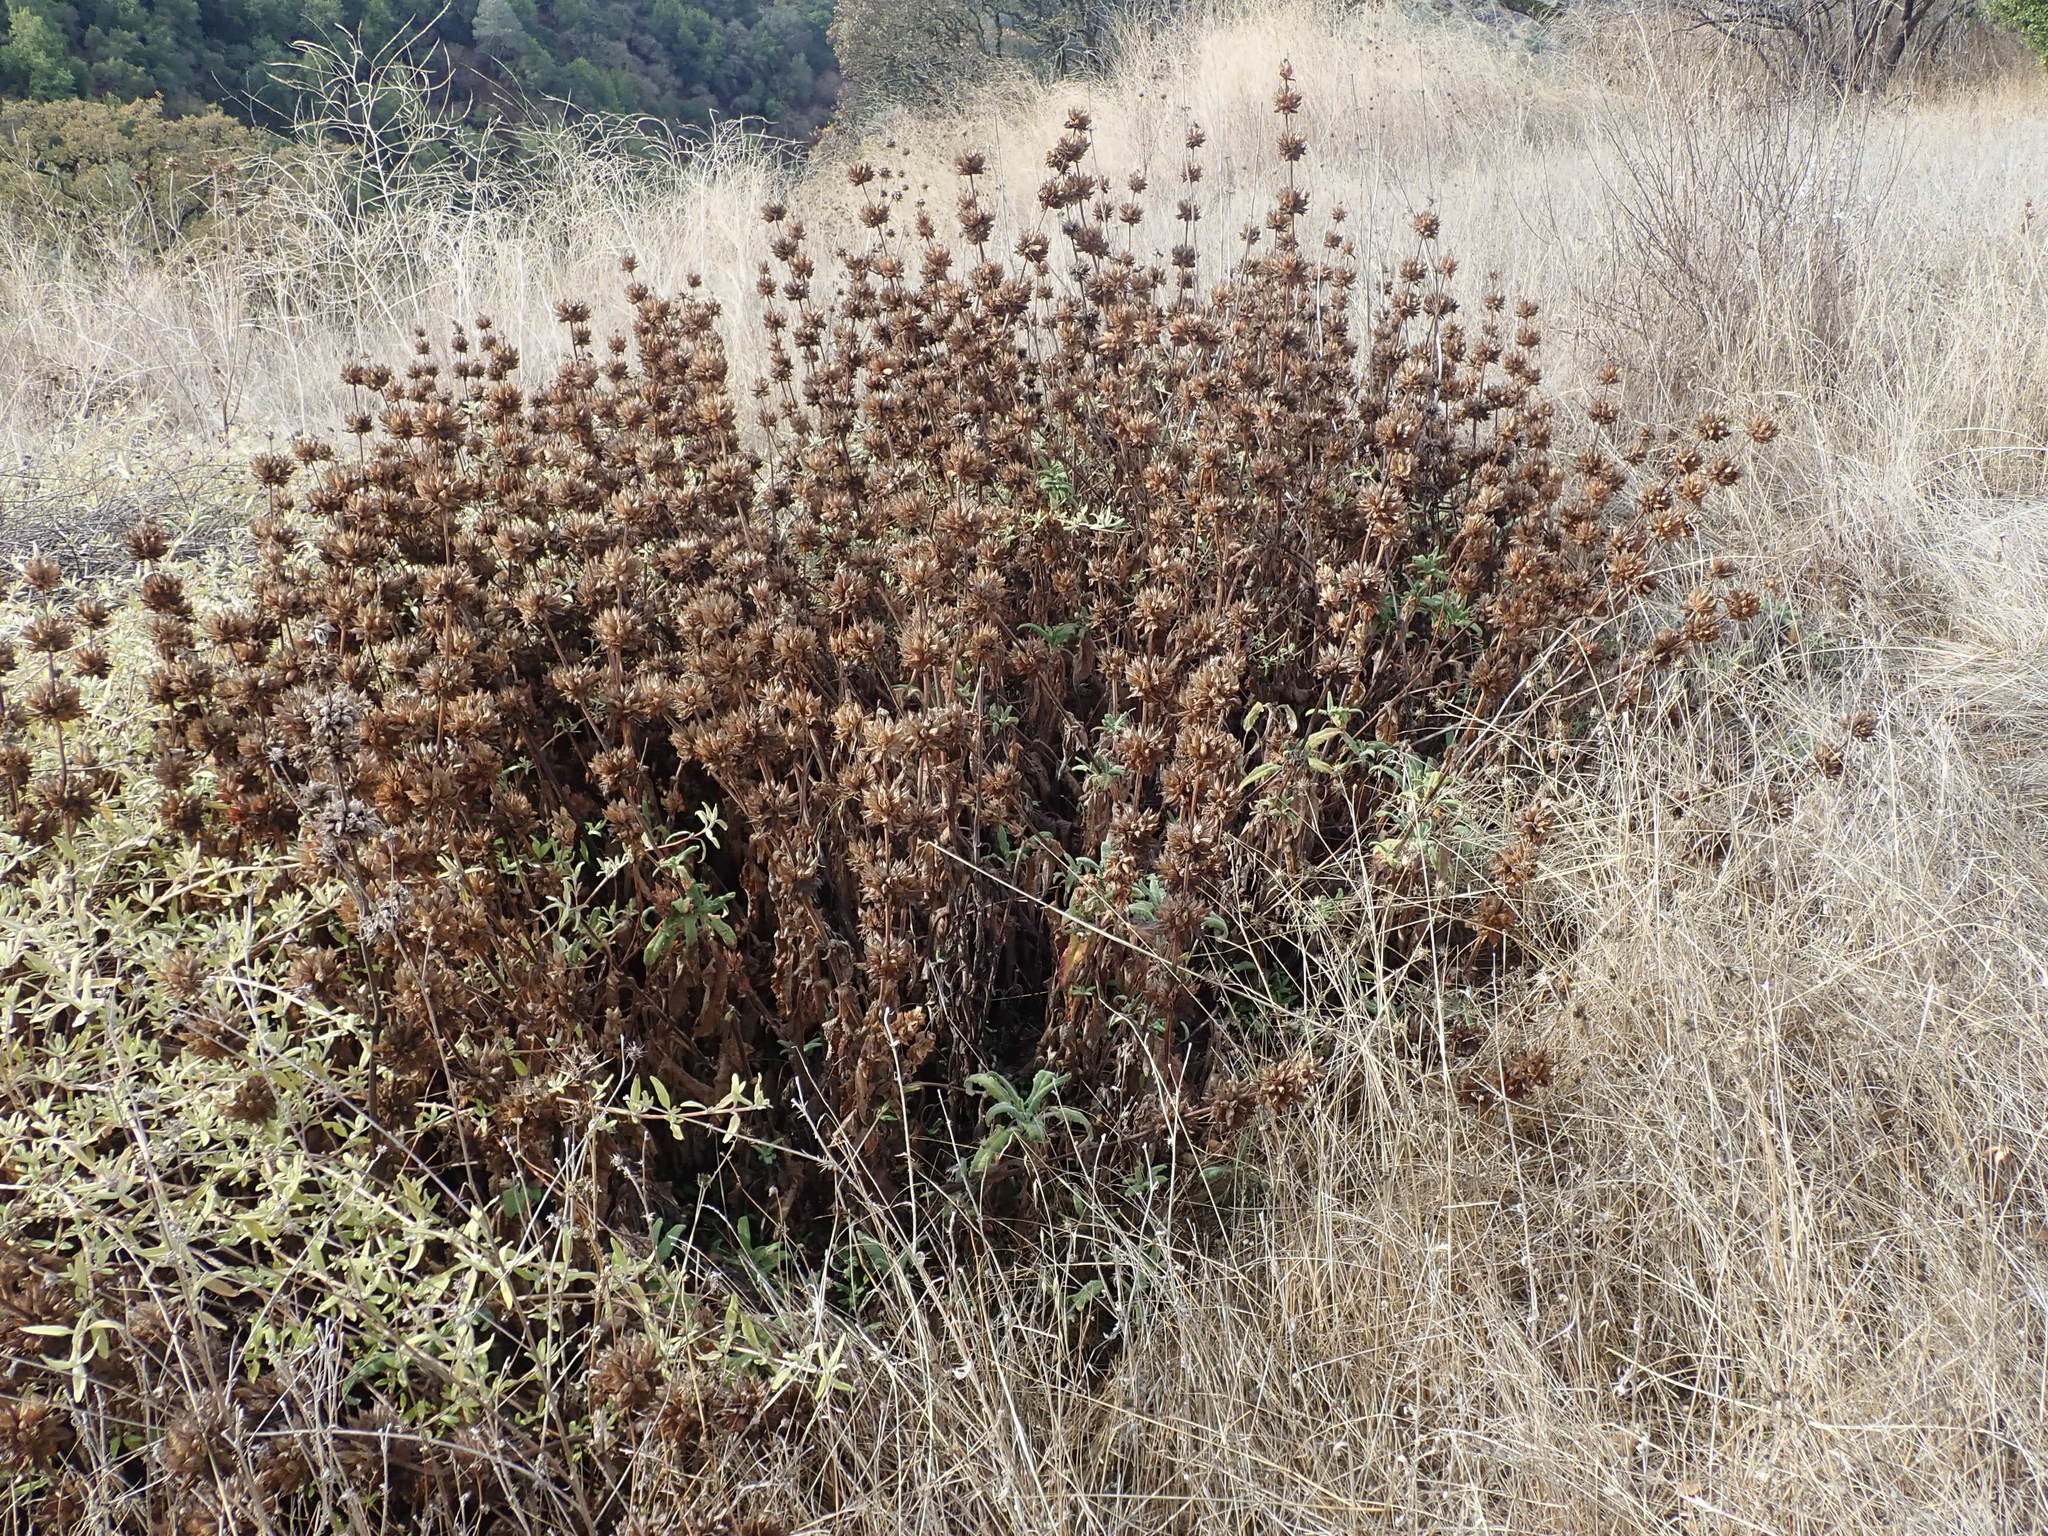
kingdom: Plantae
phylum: Tracheophyta
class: Magnoliopsida
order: Lamiales
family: Lamiaceae
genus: Salvia
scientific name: Salvia spathacea
